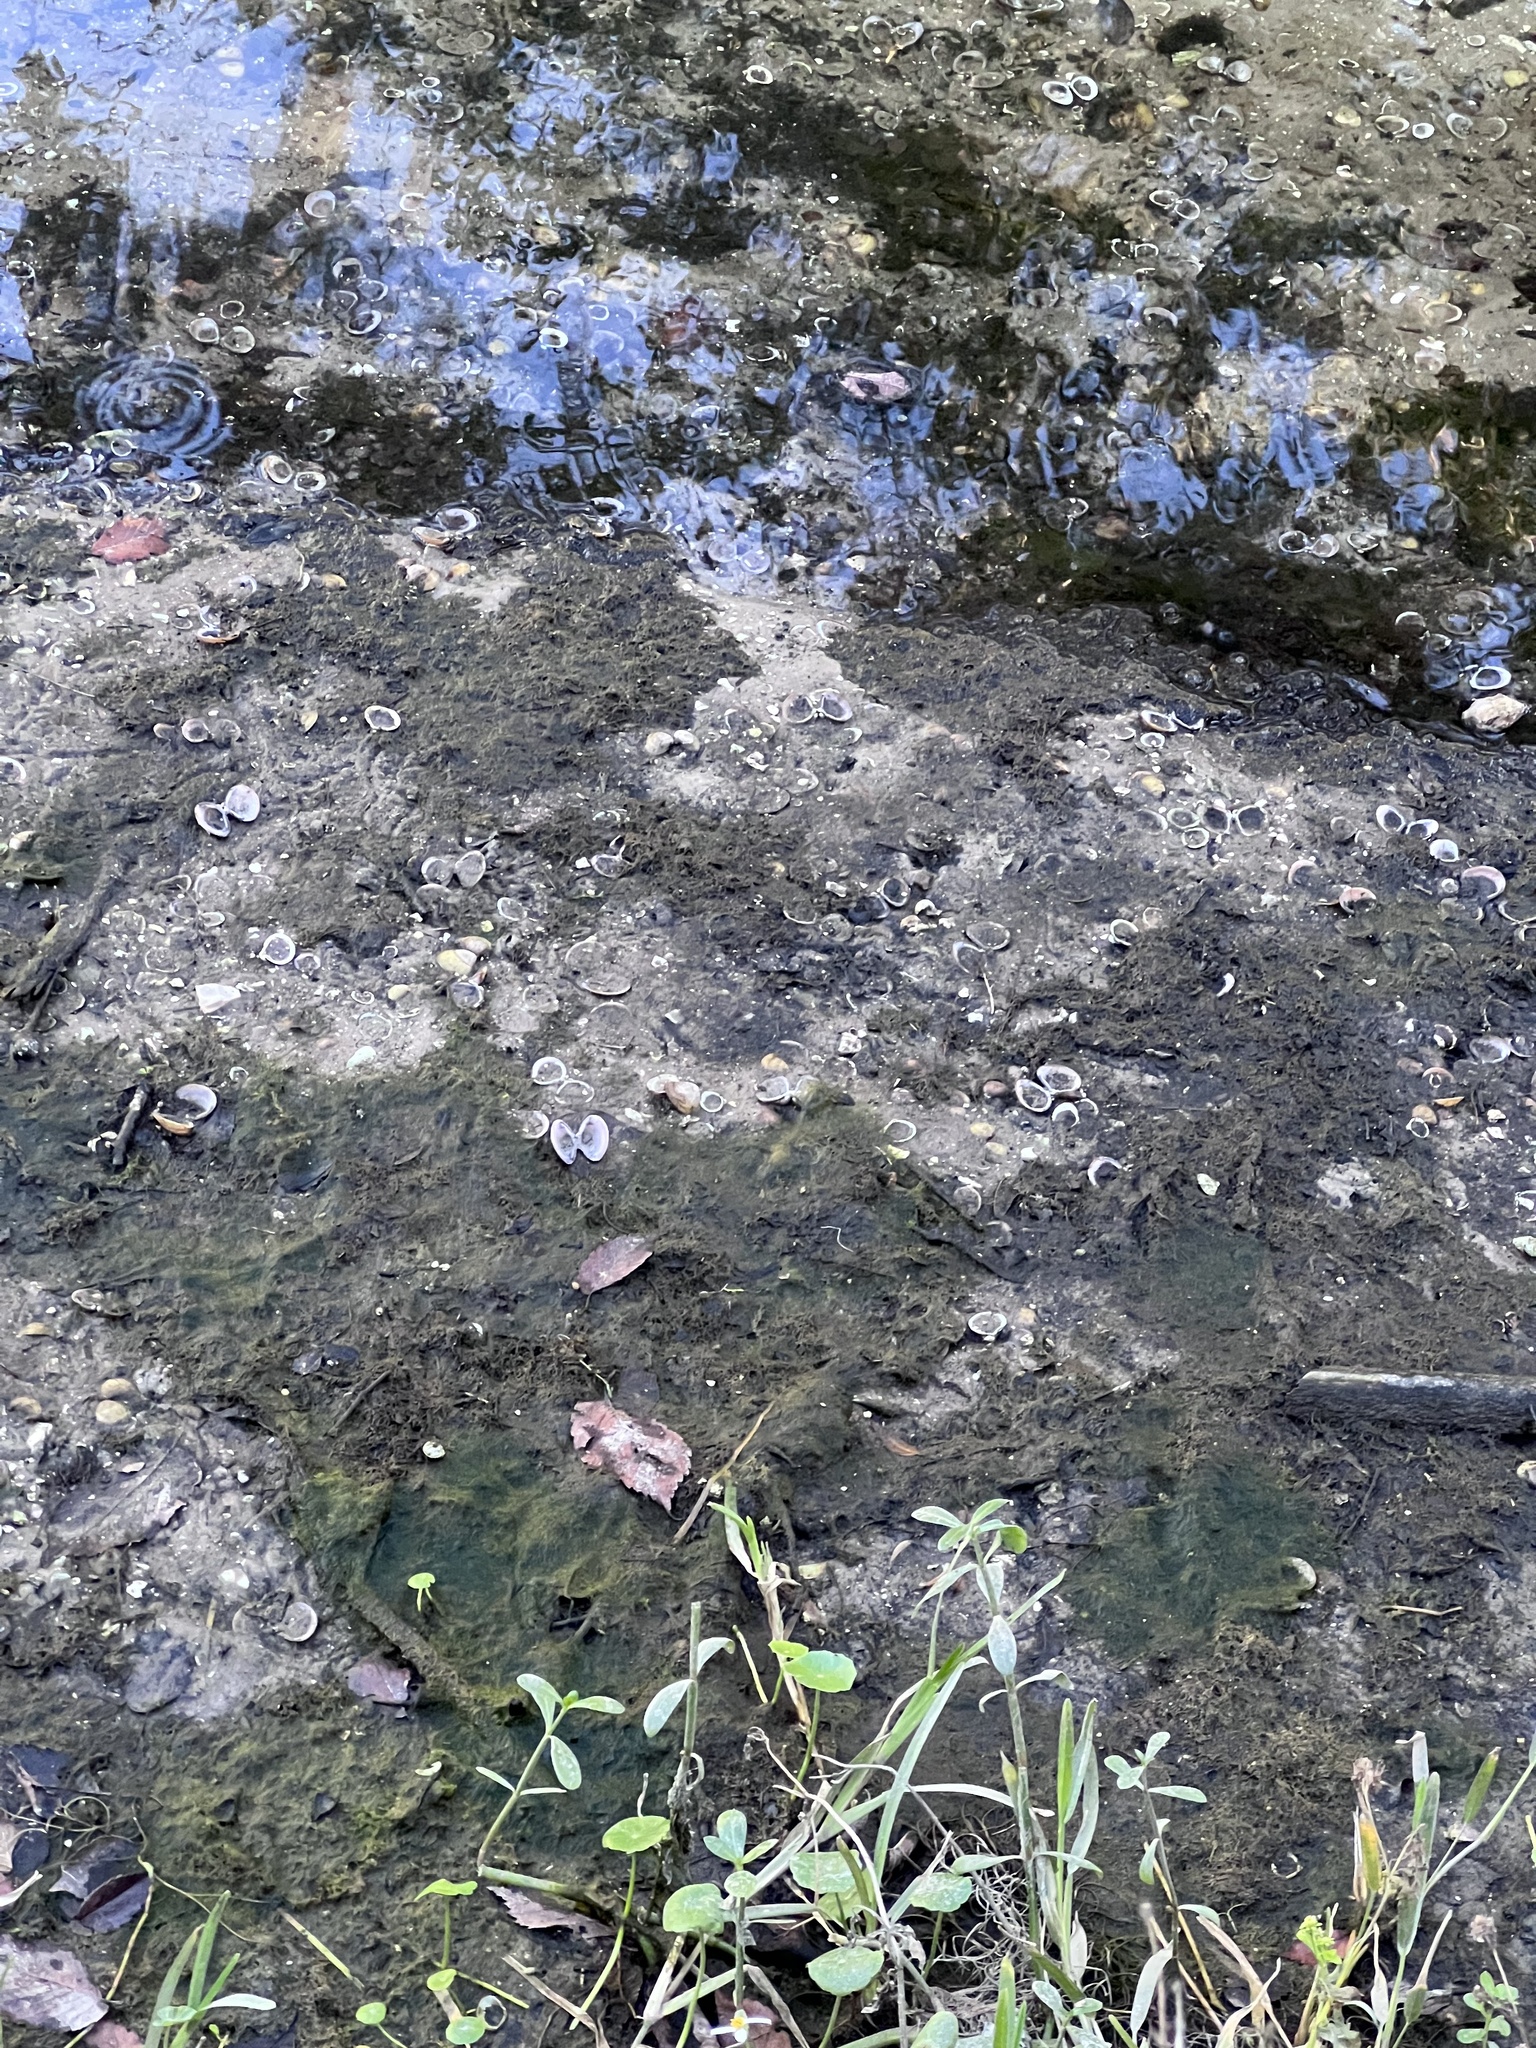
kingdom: Animalia
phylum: Mollusca
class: Bivalvia
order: Venerida
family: Cyrenidae
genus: Corbicula
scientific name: Corbicula fluminea
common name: Asian clam
